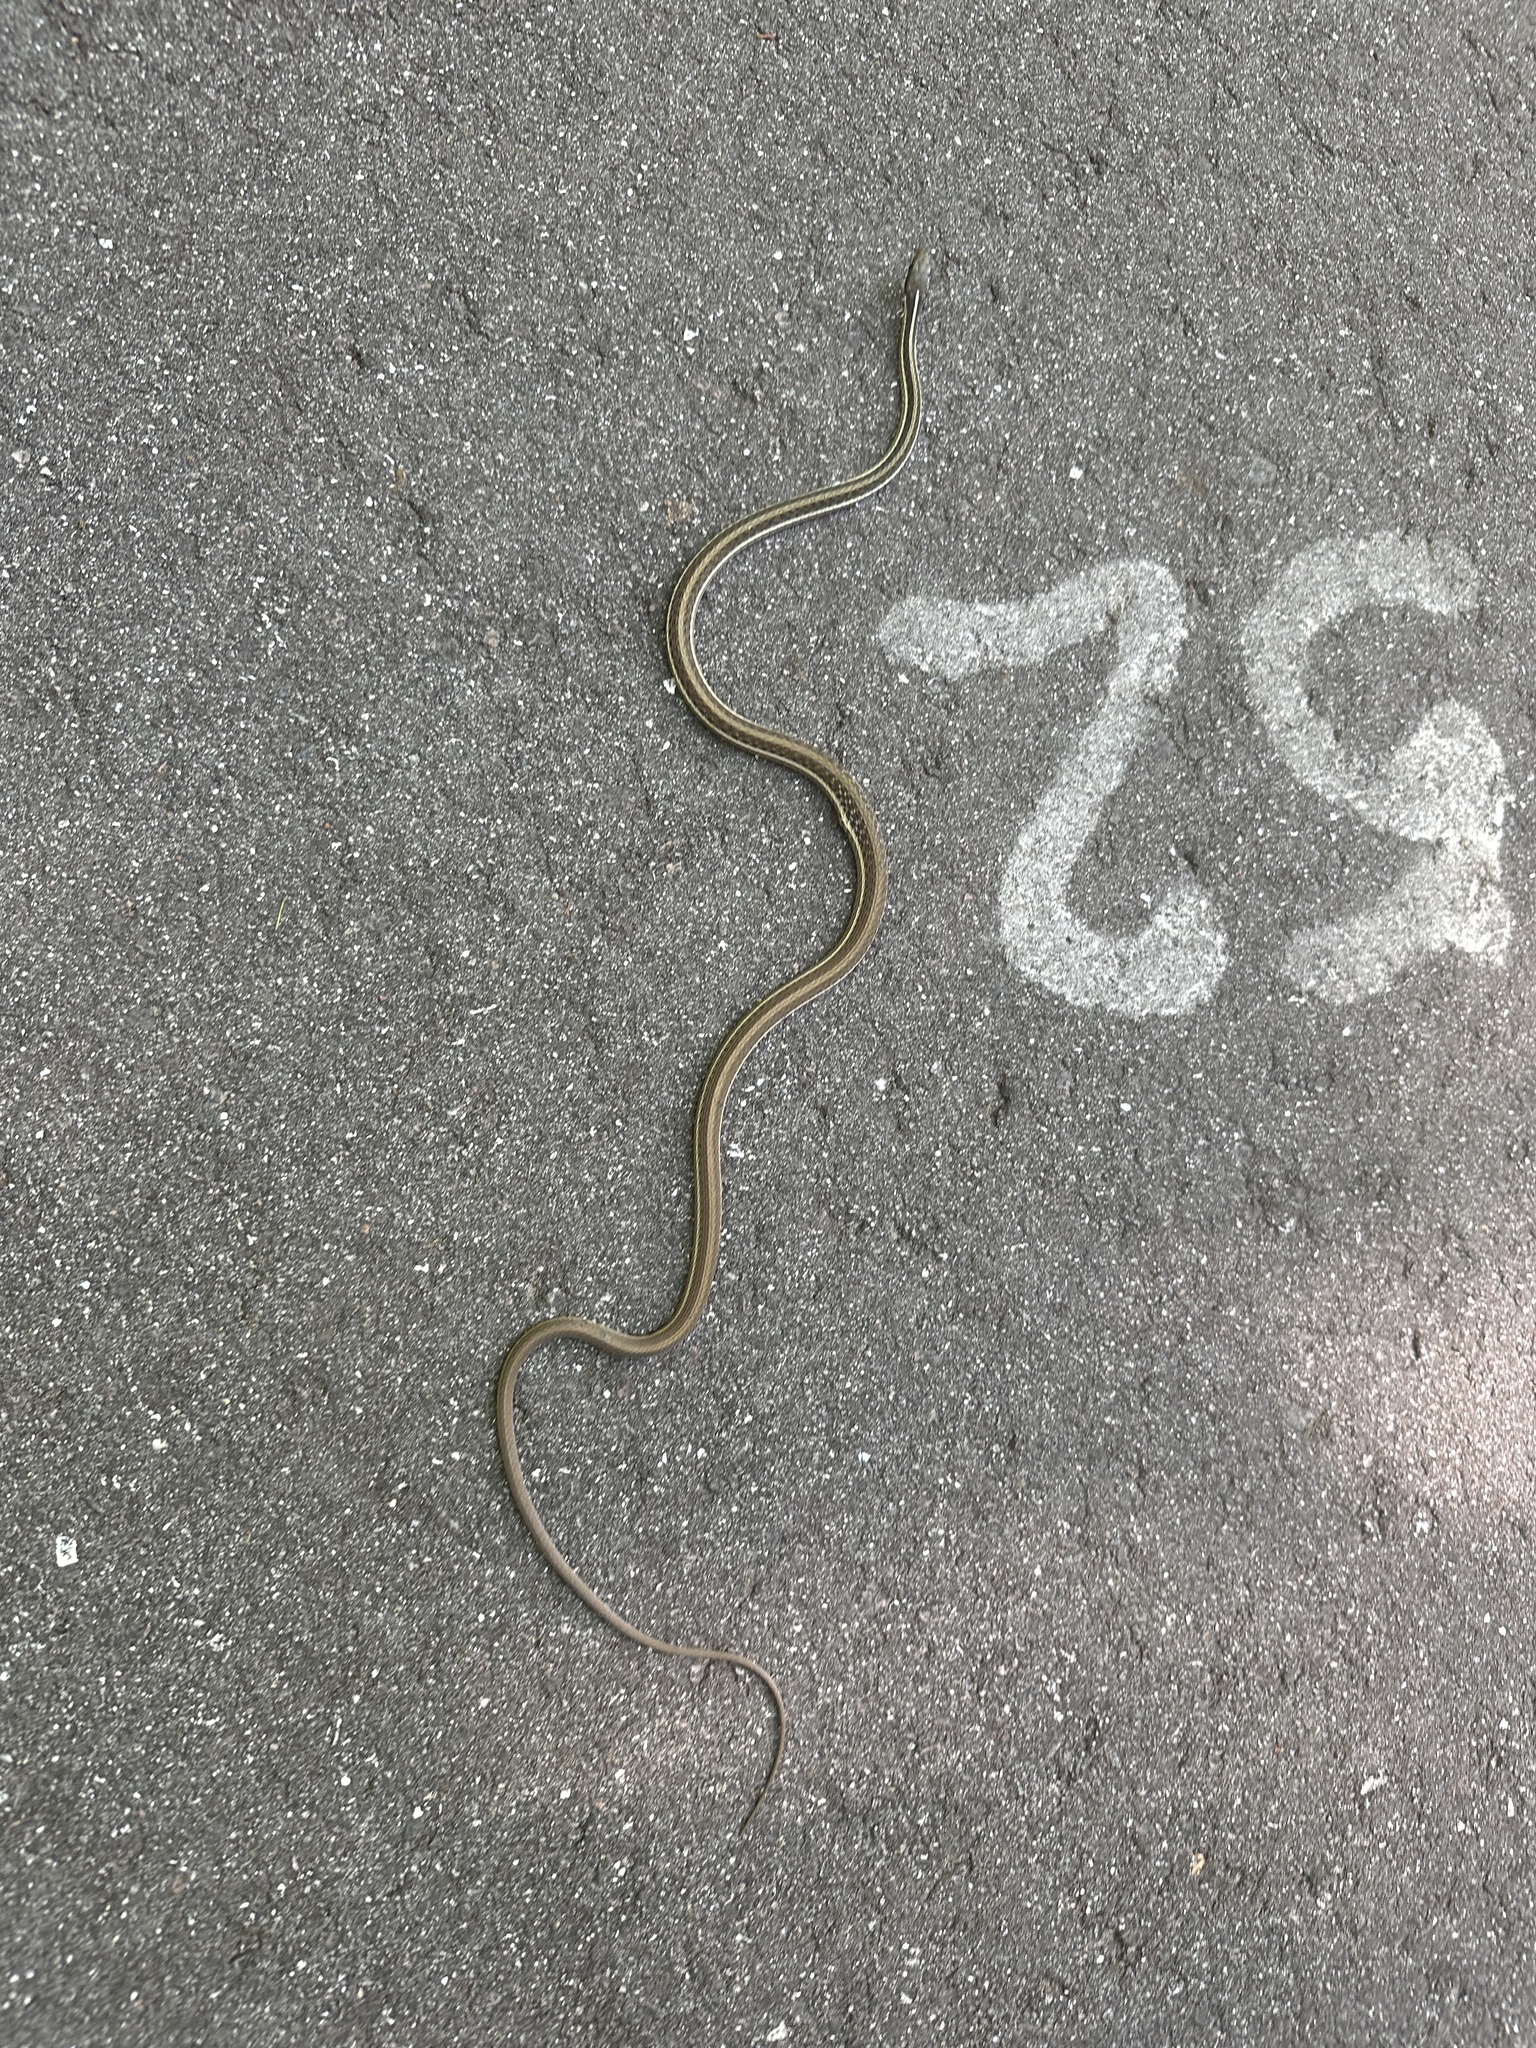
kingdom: Animalia
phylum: Chordata
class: Squamata
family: Colubridae
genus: Thamnophis
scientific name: Thamnophis saurita
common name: Eastern ribbonsnake
